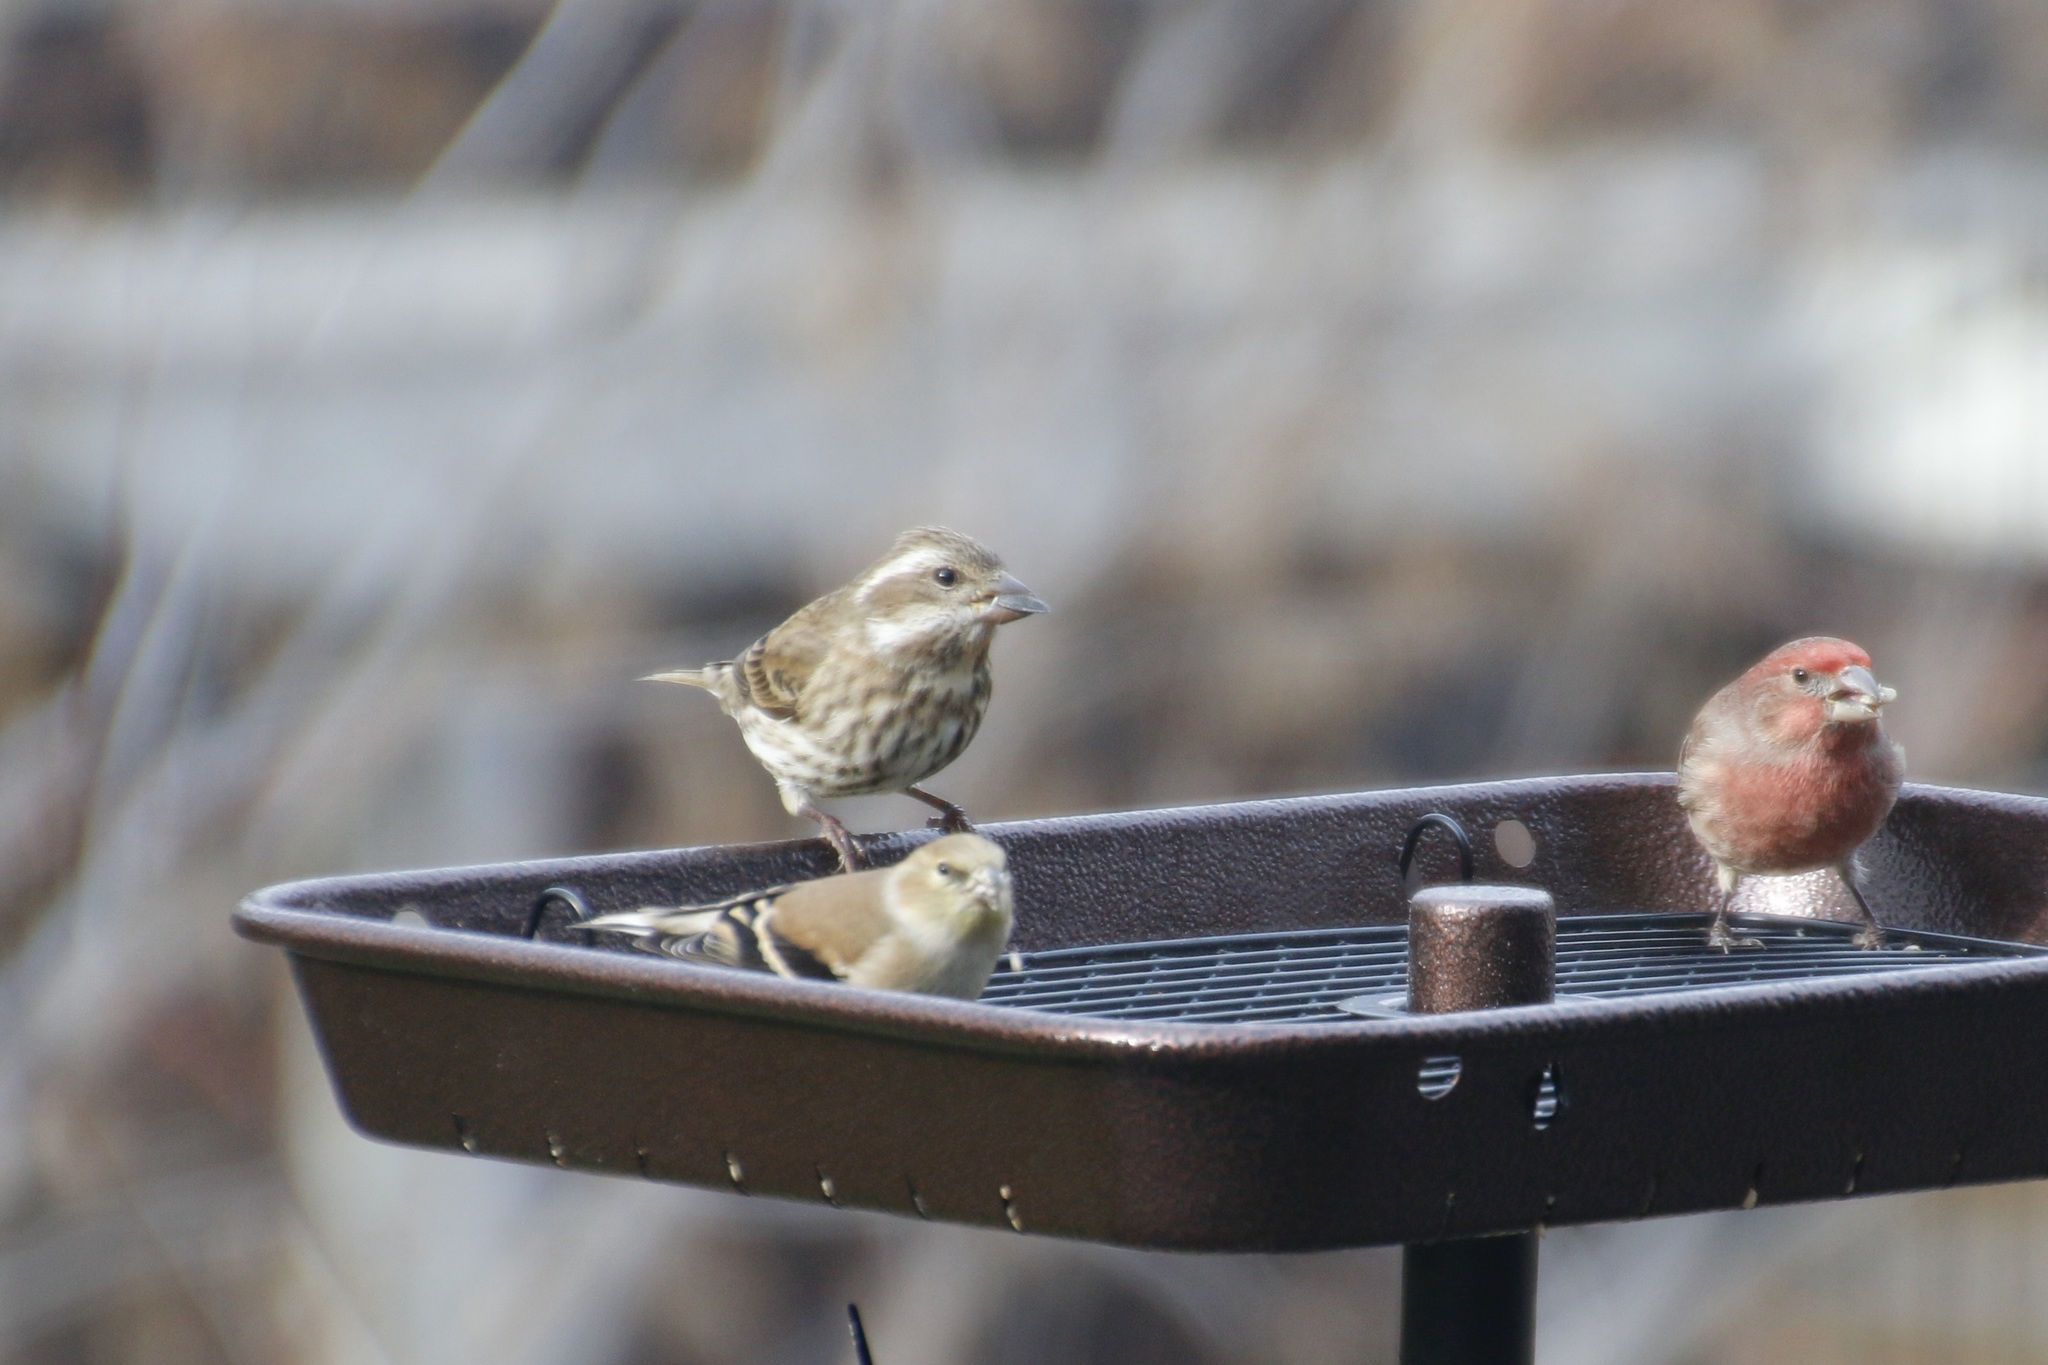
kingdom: Animalia
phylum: Chordata
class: Aves
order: Passeriformes
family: Fringillidae
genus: Haemorhous
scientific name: Haemorhous purpureus
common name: Purple finch
